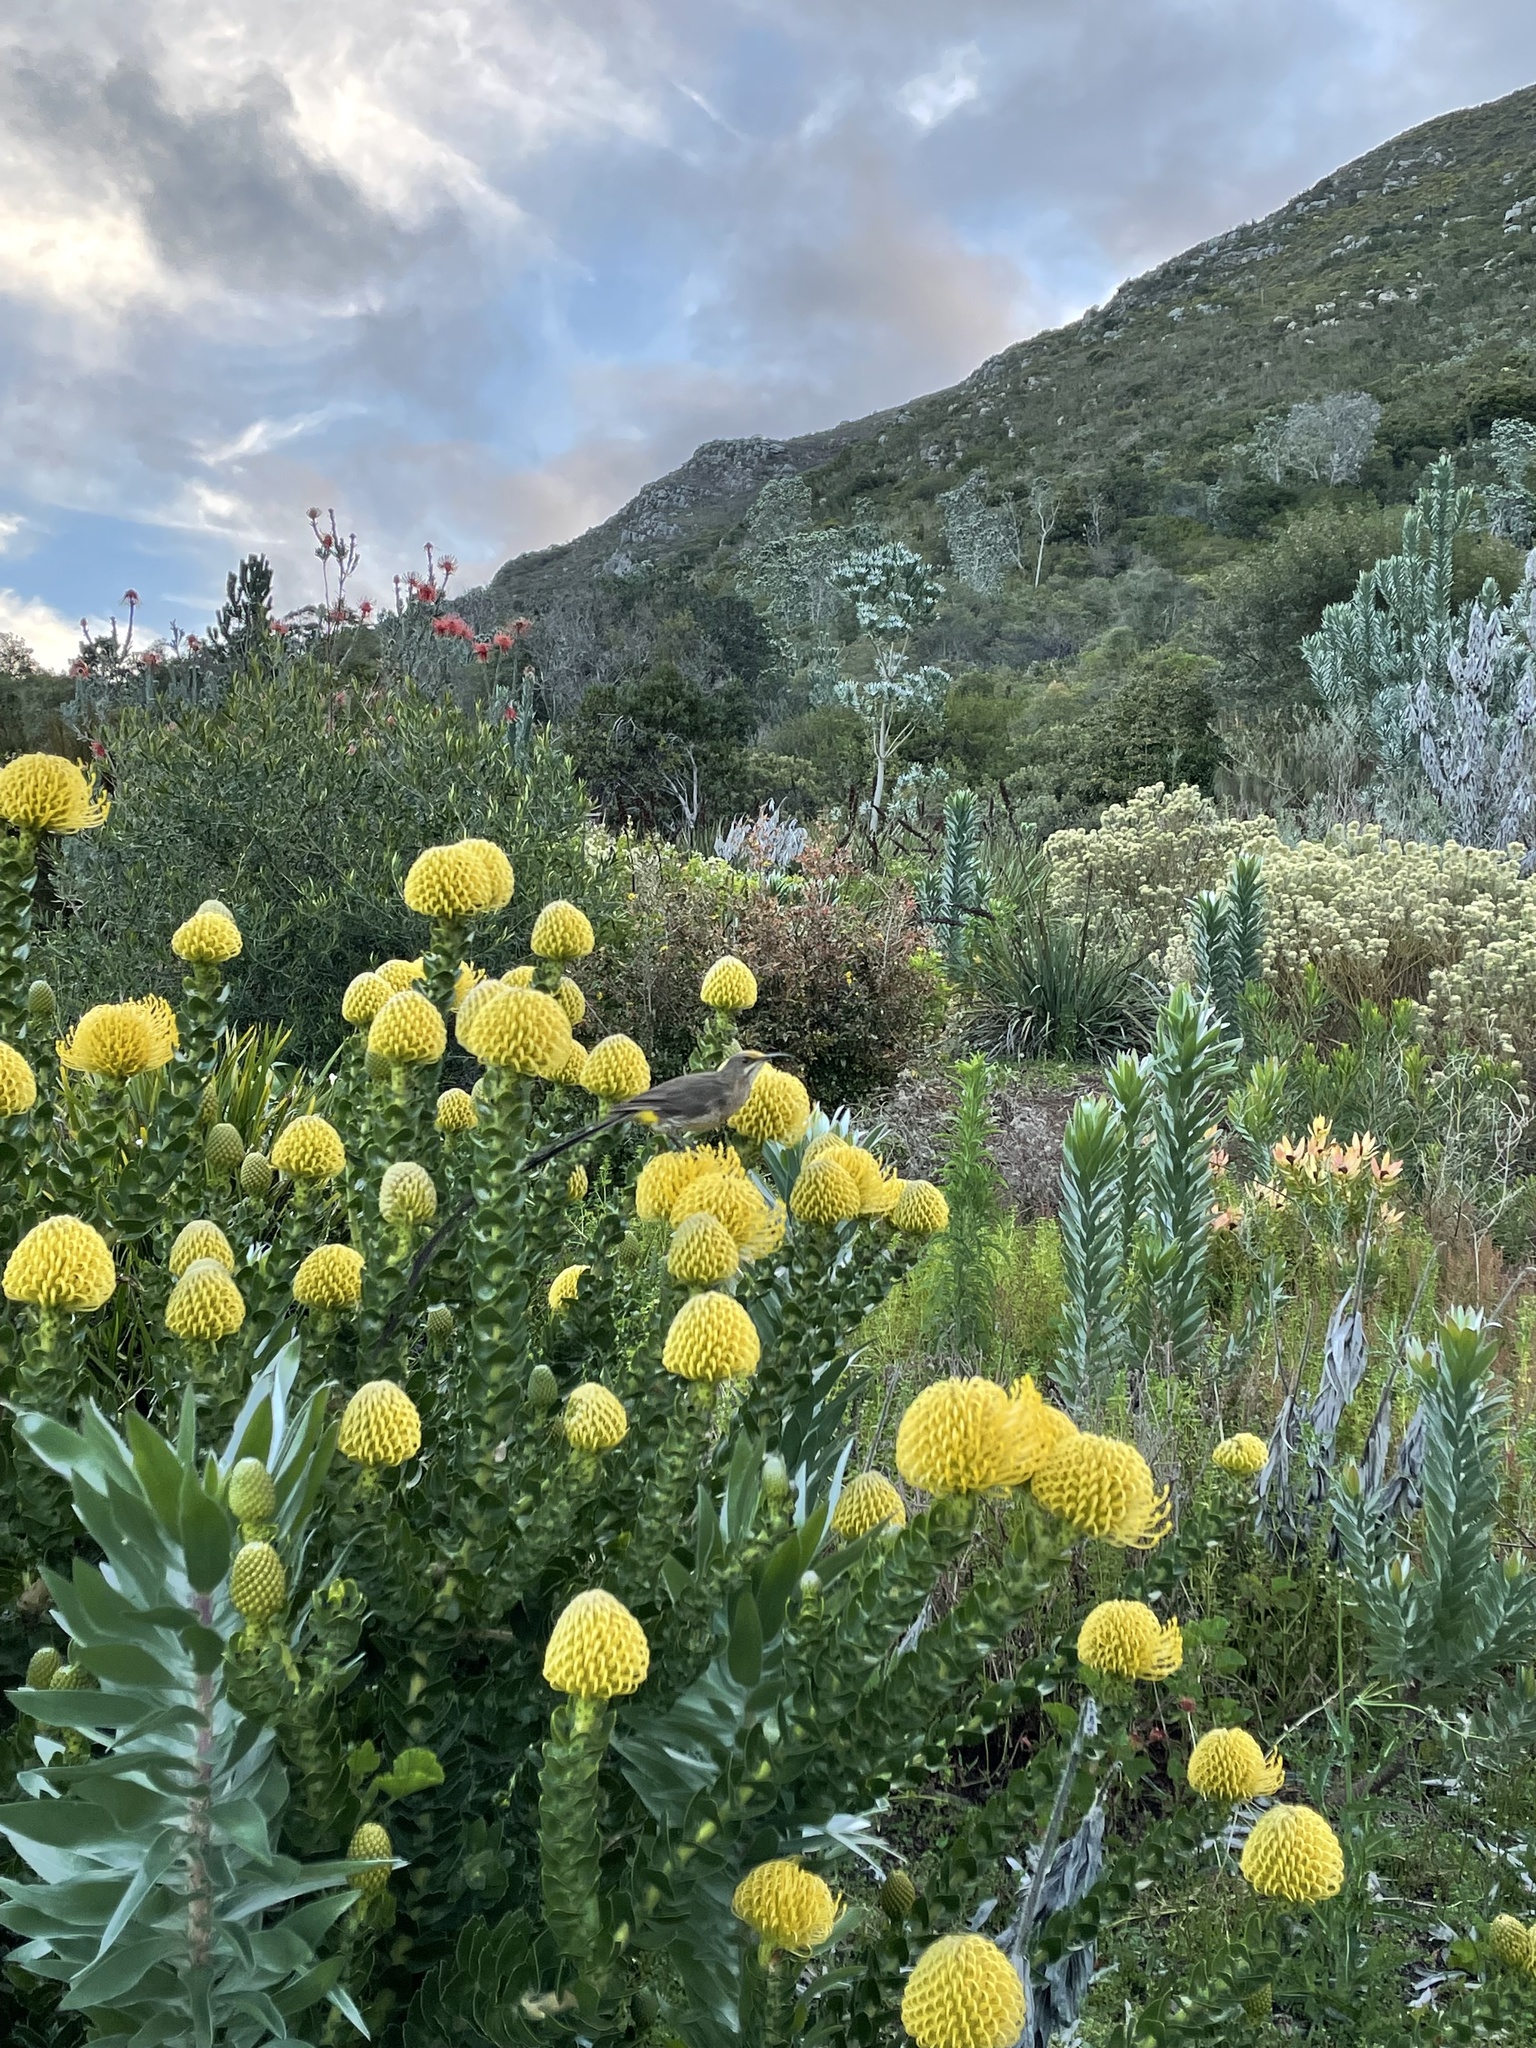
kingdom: Animalia
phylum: Chordata
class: Aves
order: Passeriformes
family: Promeropidae
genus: Promerops
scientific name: Promerops cafer
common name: Cape sugarbird
